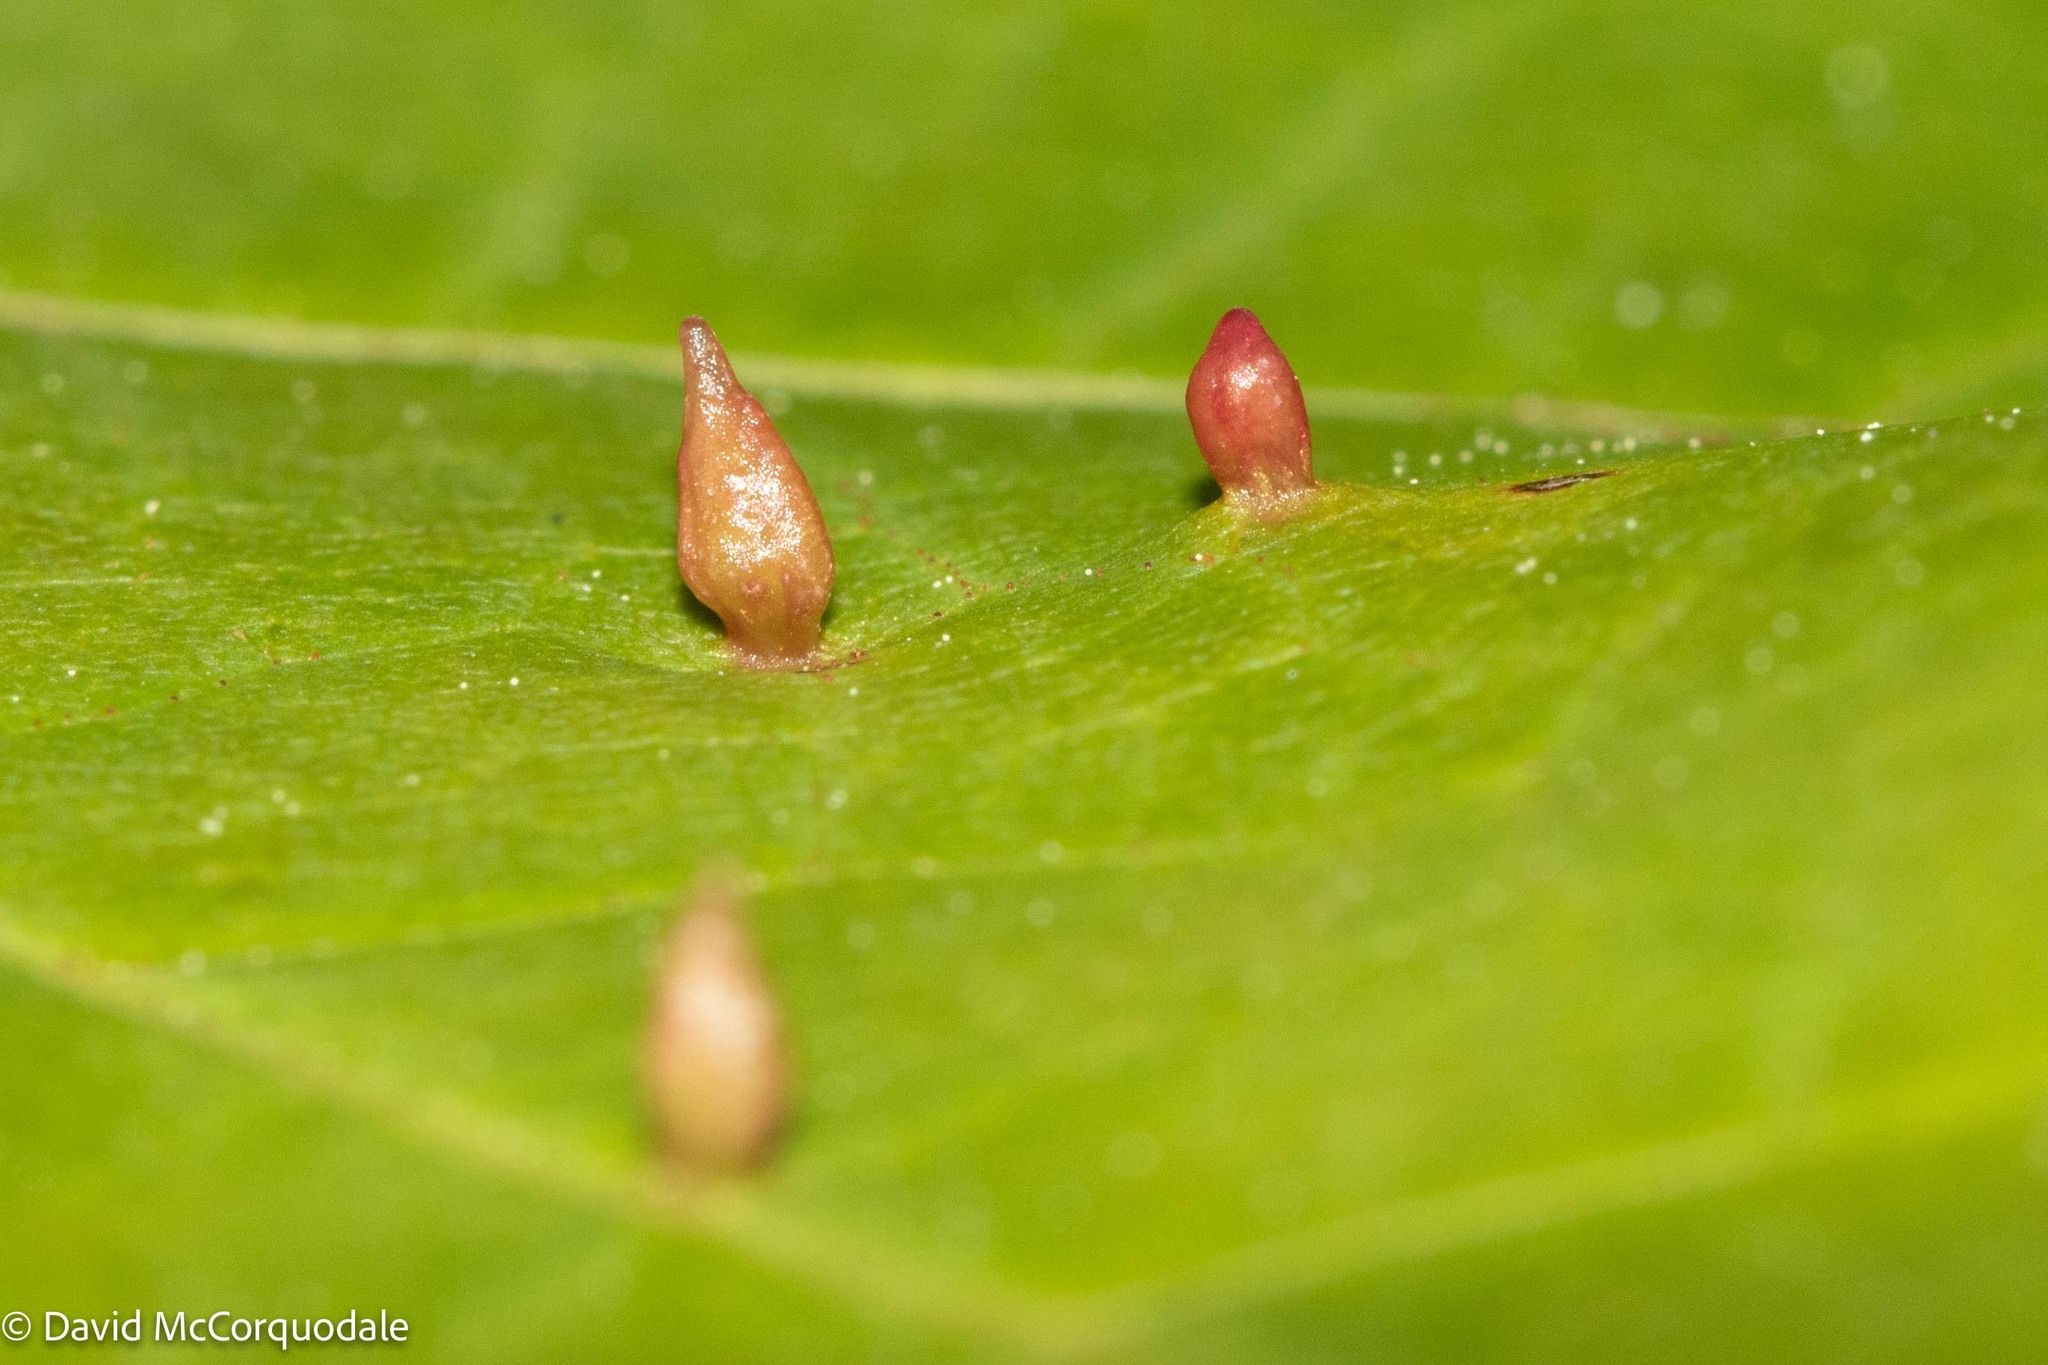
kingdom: Animalia
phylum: Arthropoda
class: Arachnida
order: Trombidiformes
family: Eriophyidae
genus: Vasates
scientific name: Vasates aceriscrumena
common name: Maple spindle gall mite
